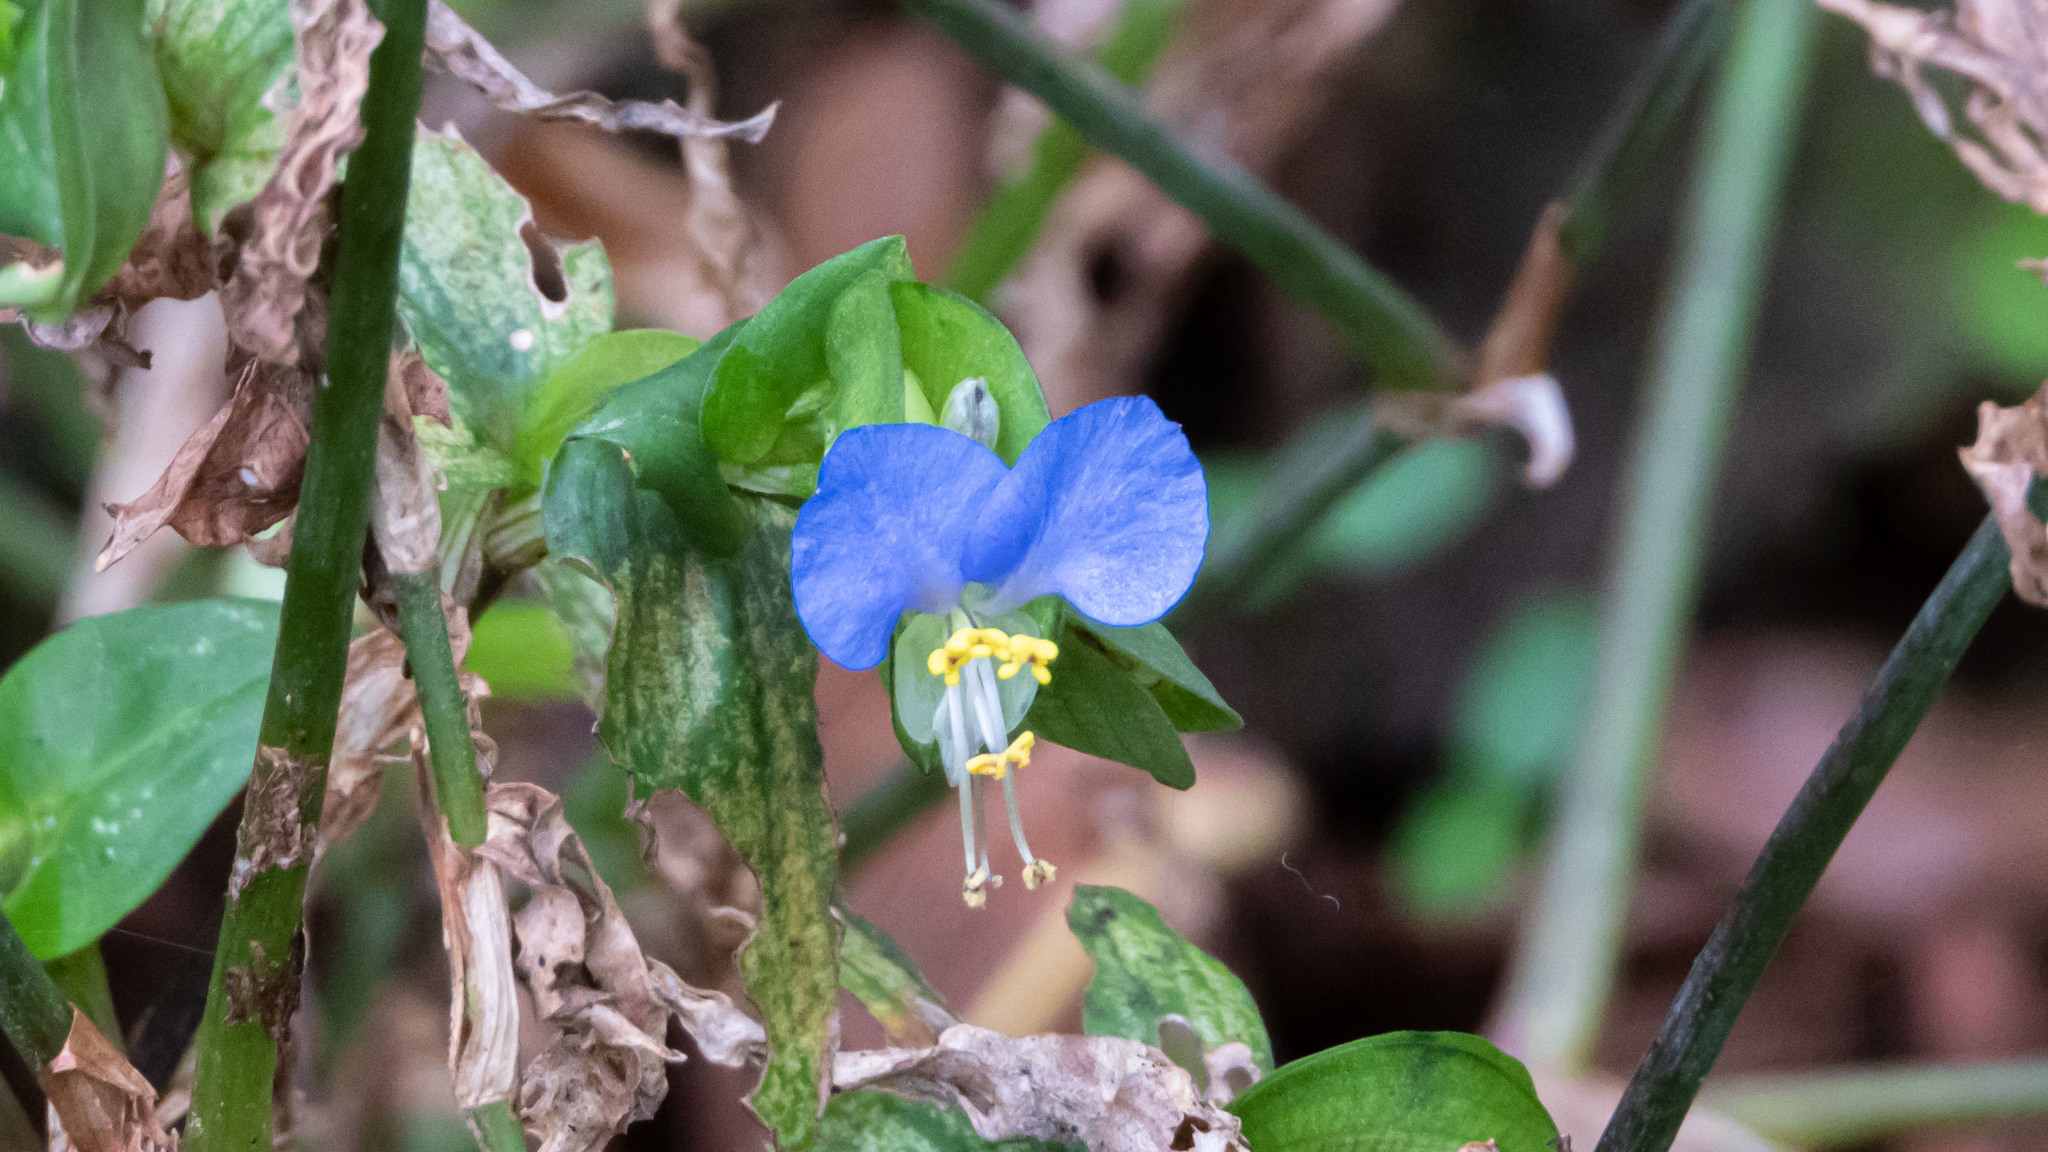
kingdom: Plantae
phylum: Tracheophyta
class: Liliopsida
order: Commelinales
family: Commelinaceae
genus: Commelina
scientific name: Commelina communis
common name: Asiatic dayflower
